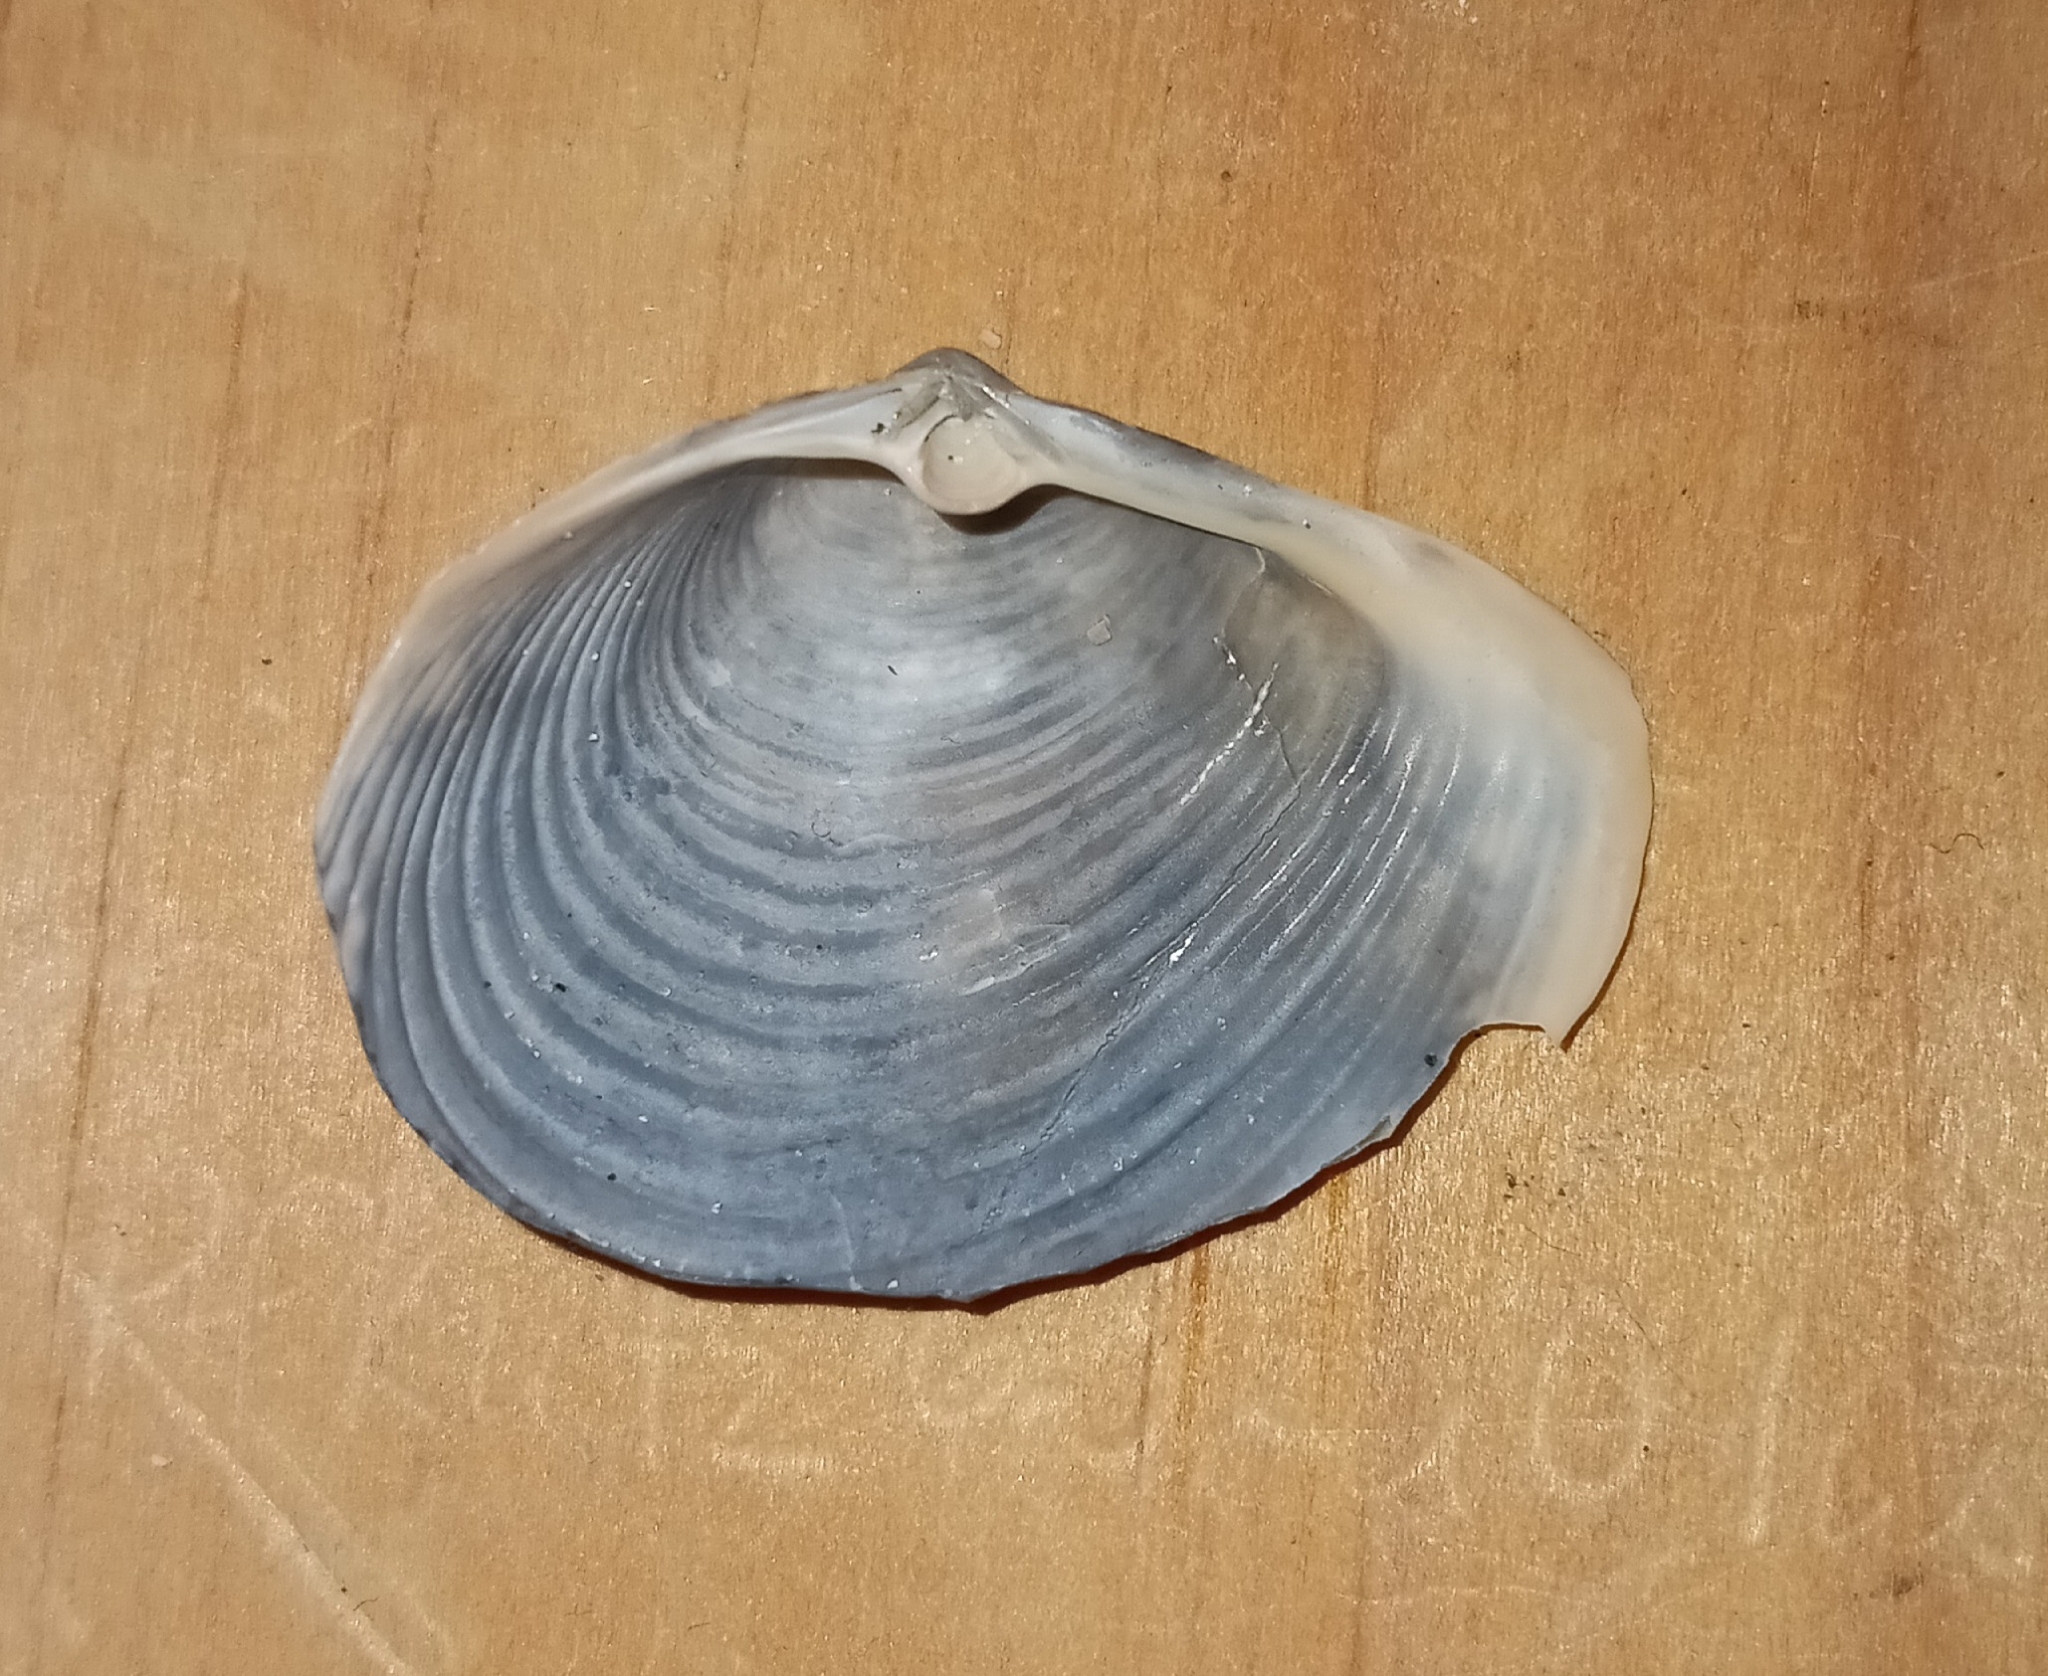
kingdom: Animalia
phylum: Mollusca
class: Bivalvia
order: Venerida
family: Anatinellidae
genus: Raeta
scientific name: Raeta plicatella
